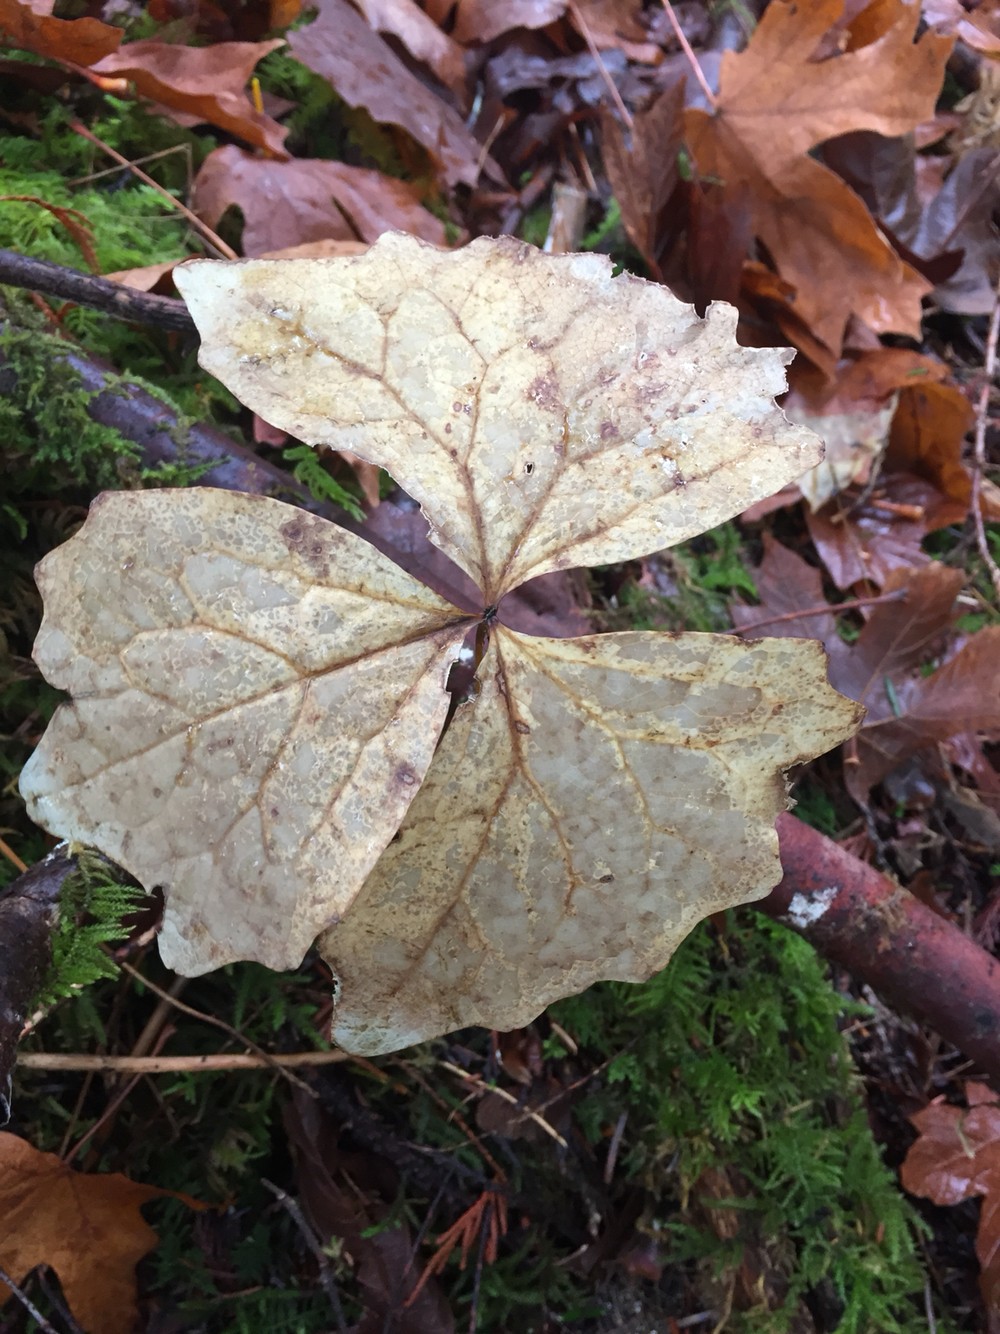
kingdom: Plantae
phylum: Tracheophyta
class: Magnoliopsida
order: Ranunculales
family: Berberidaceae
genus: Achlys
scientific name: Achlys triphylla
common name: Vanilla-leaf
